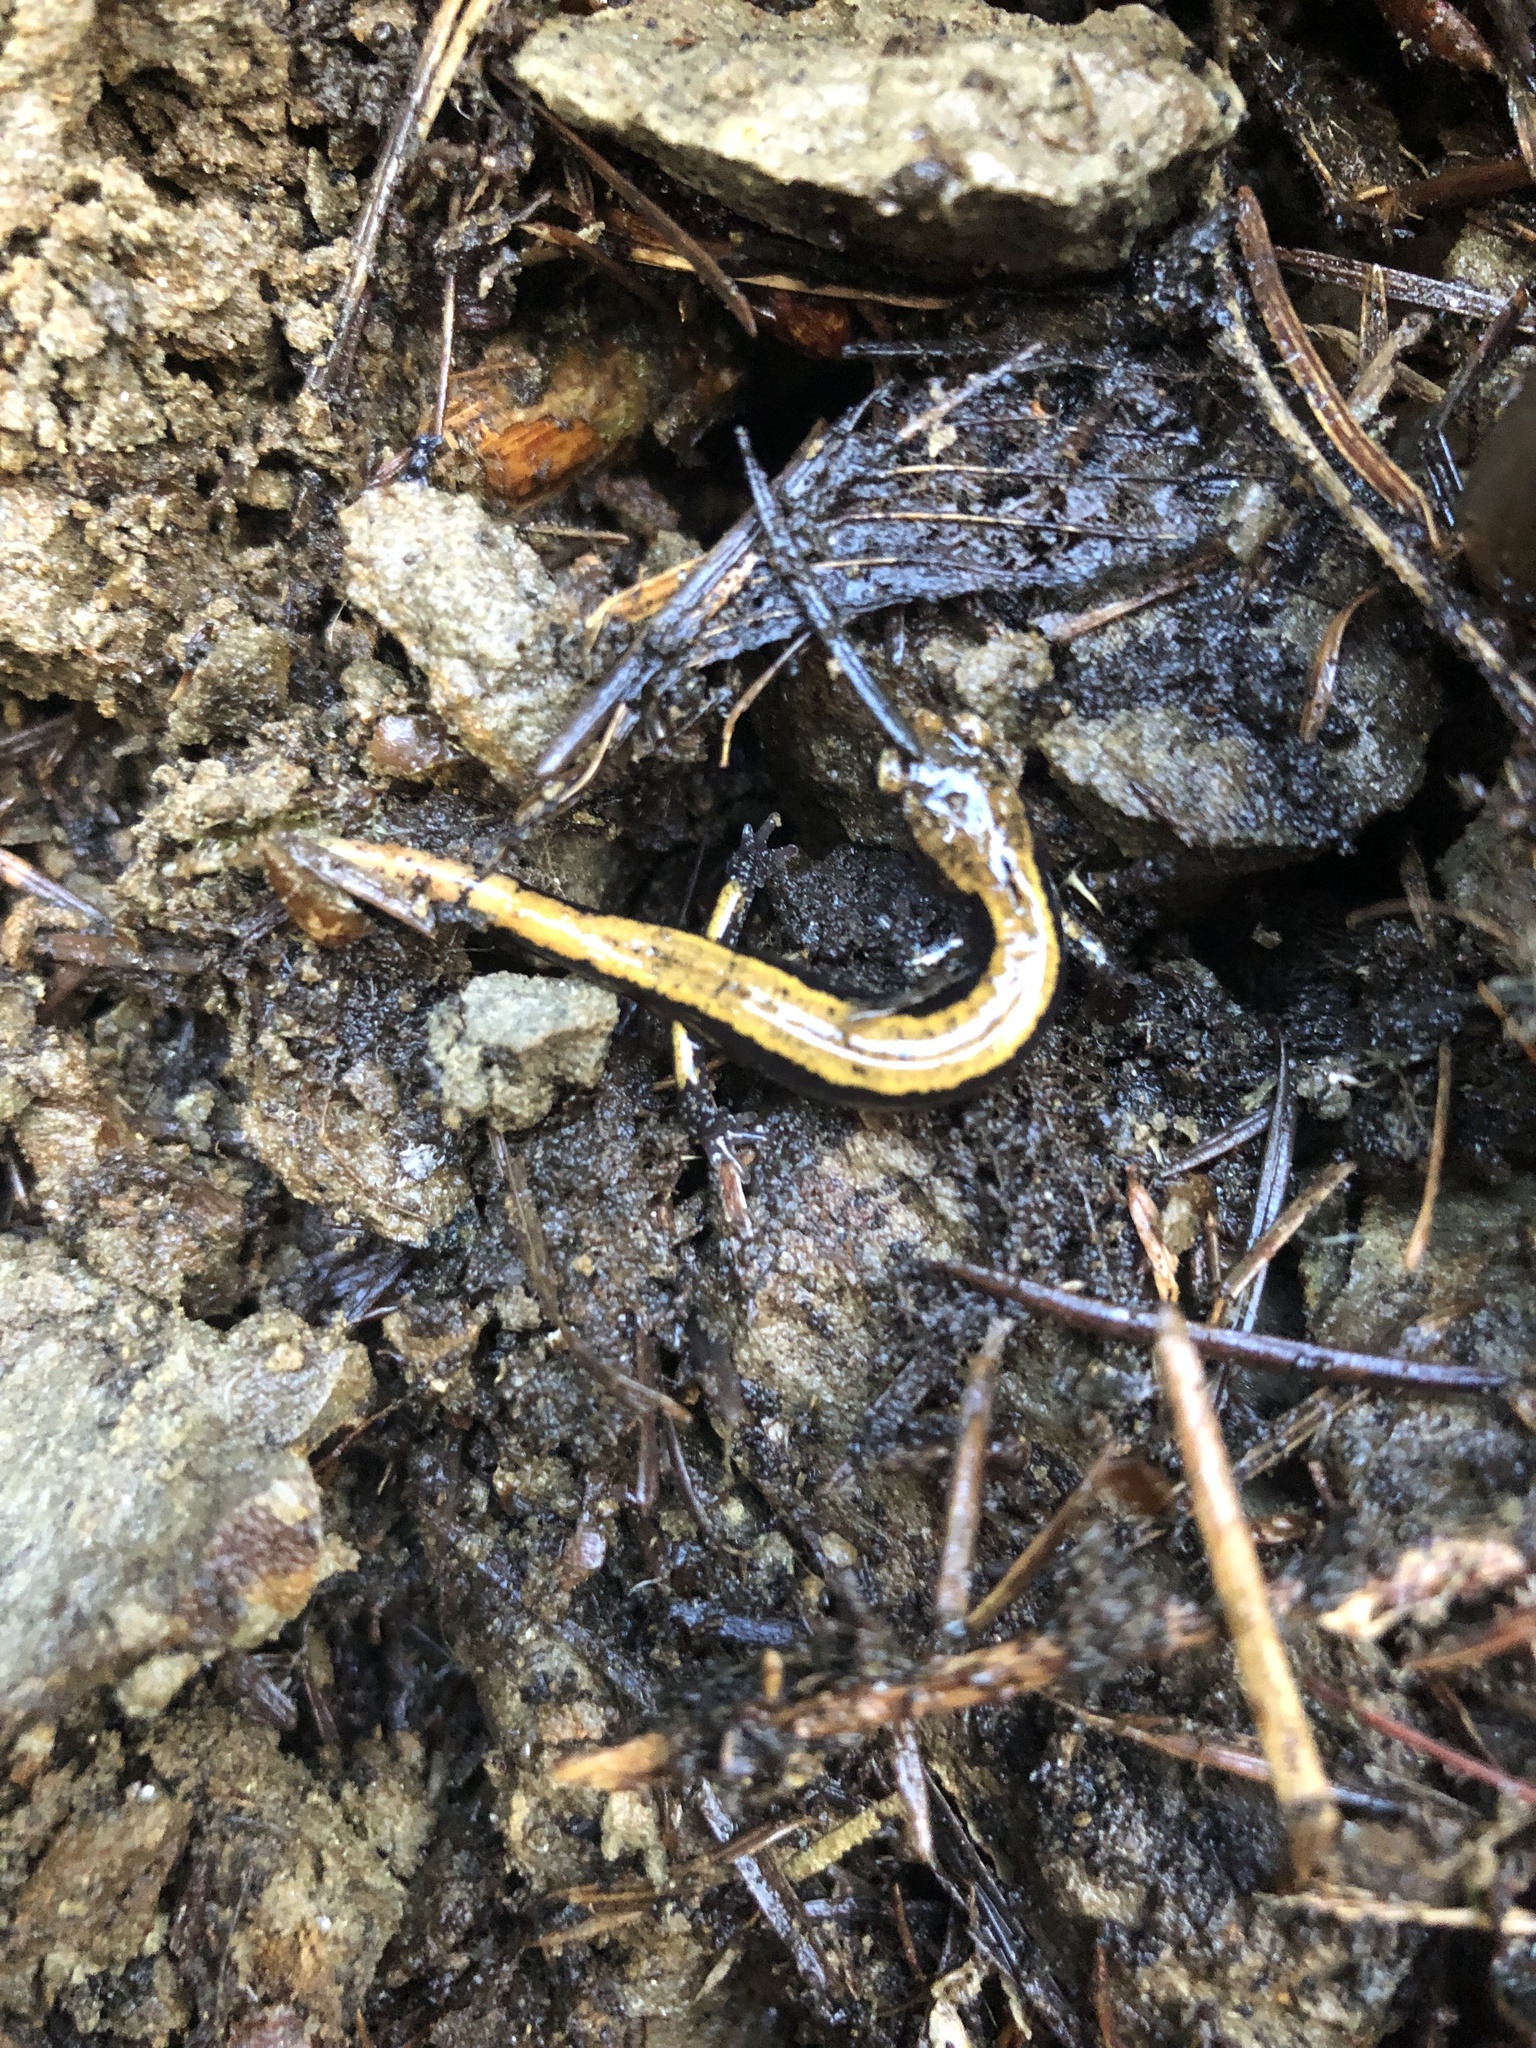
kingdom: Animalia
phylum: Chordata
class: Amphibia
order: Caudata
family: Plethodontidae
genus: Plethodon
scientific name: Plethodon vehiculum
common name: Western red-backed salamander
